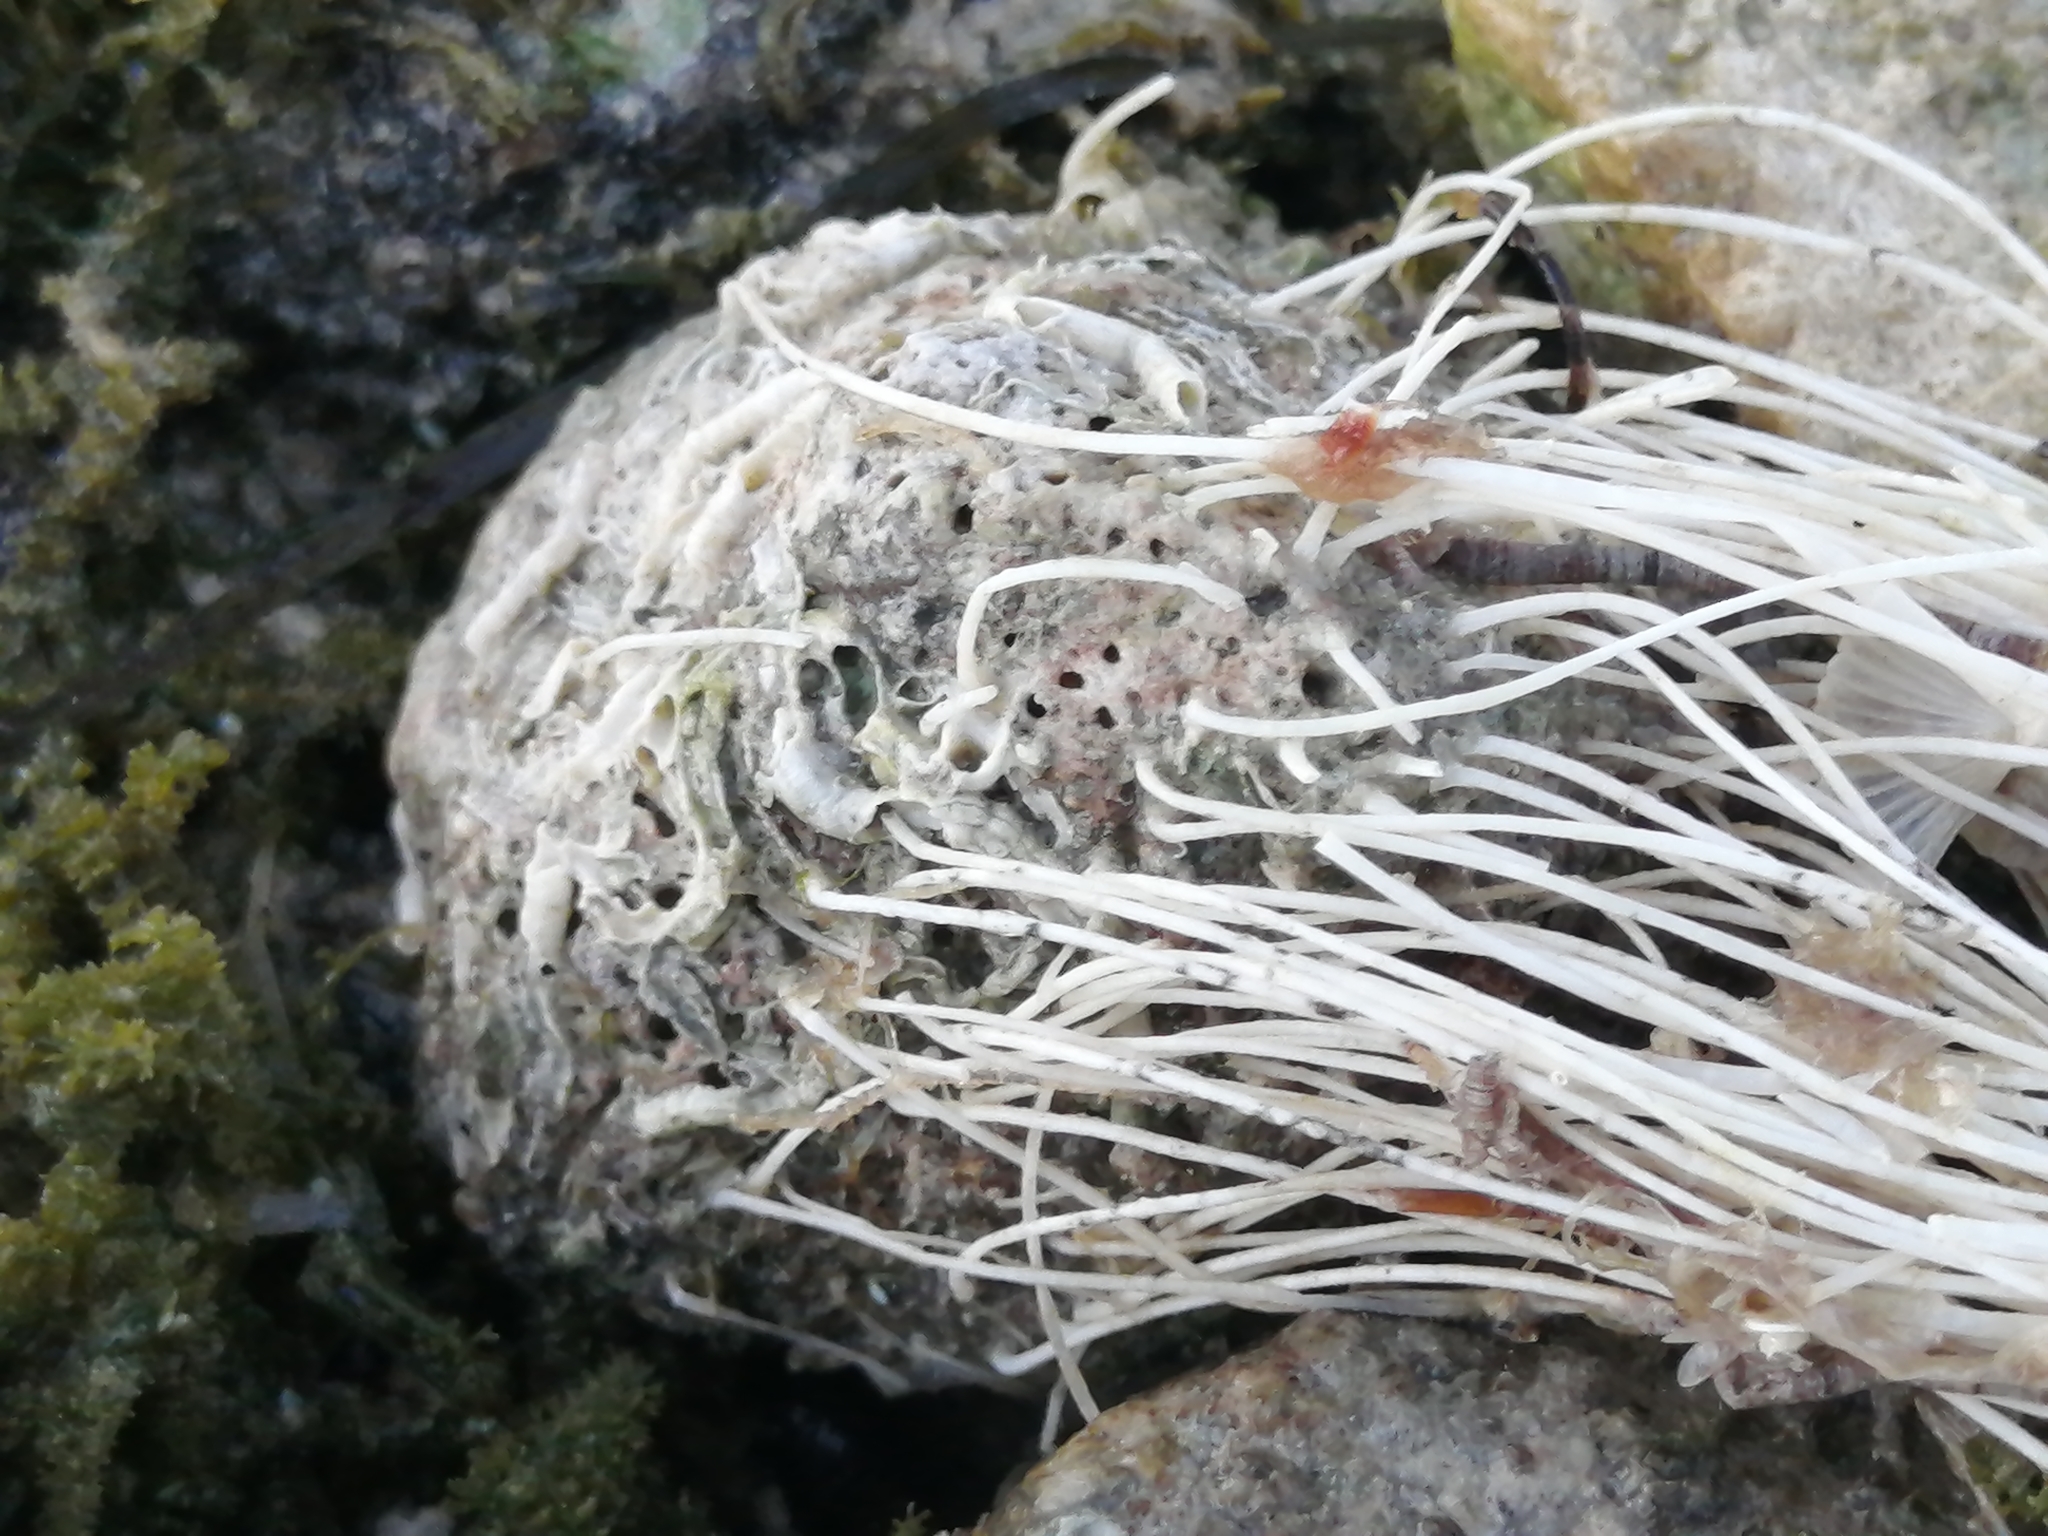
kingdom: Plantae
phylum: Chlorophyta
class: Ulvophyceae
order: Dasycladales
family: Polyphysaceae
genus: Acetabularia
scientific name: Acetabularia acetabulum
